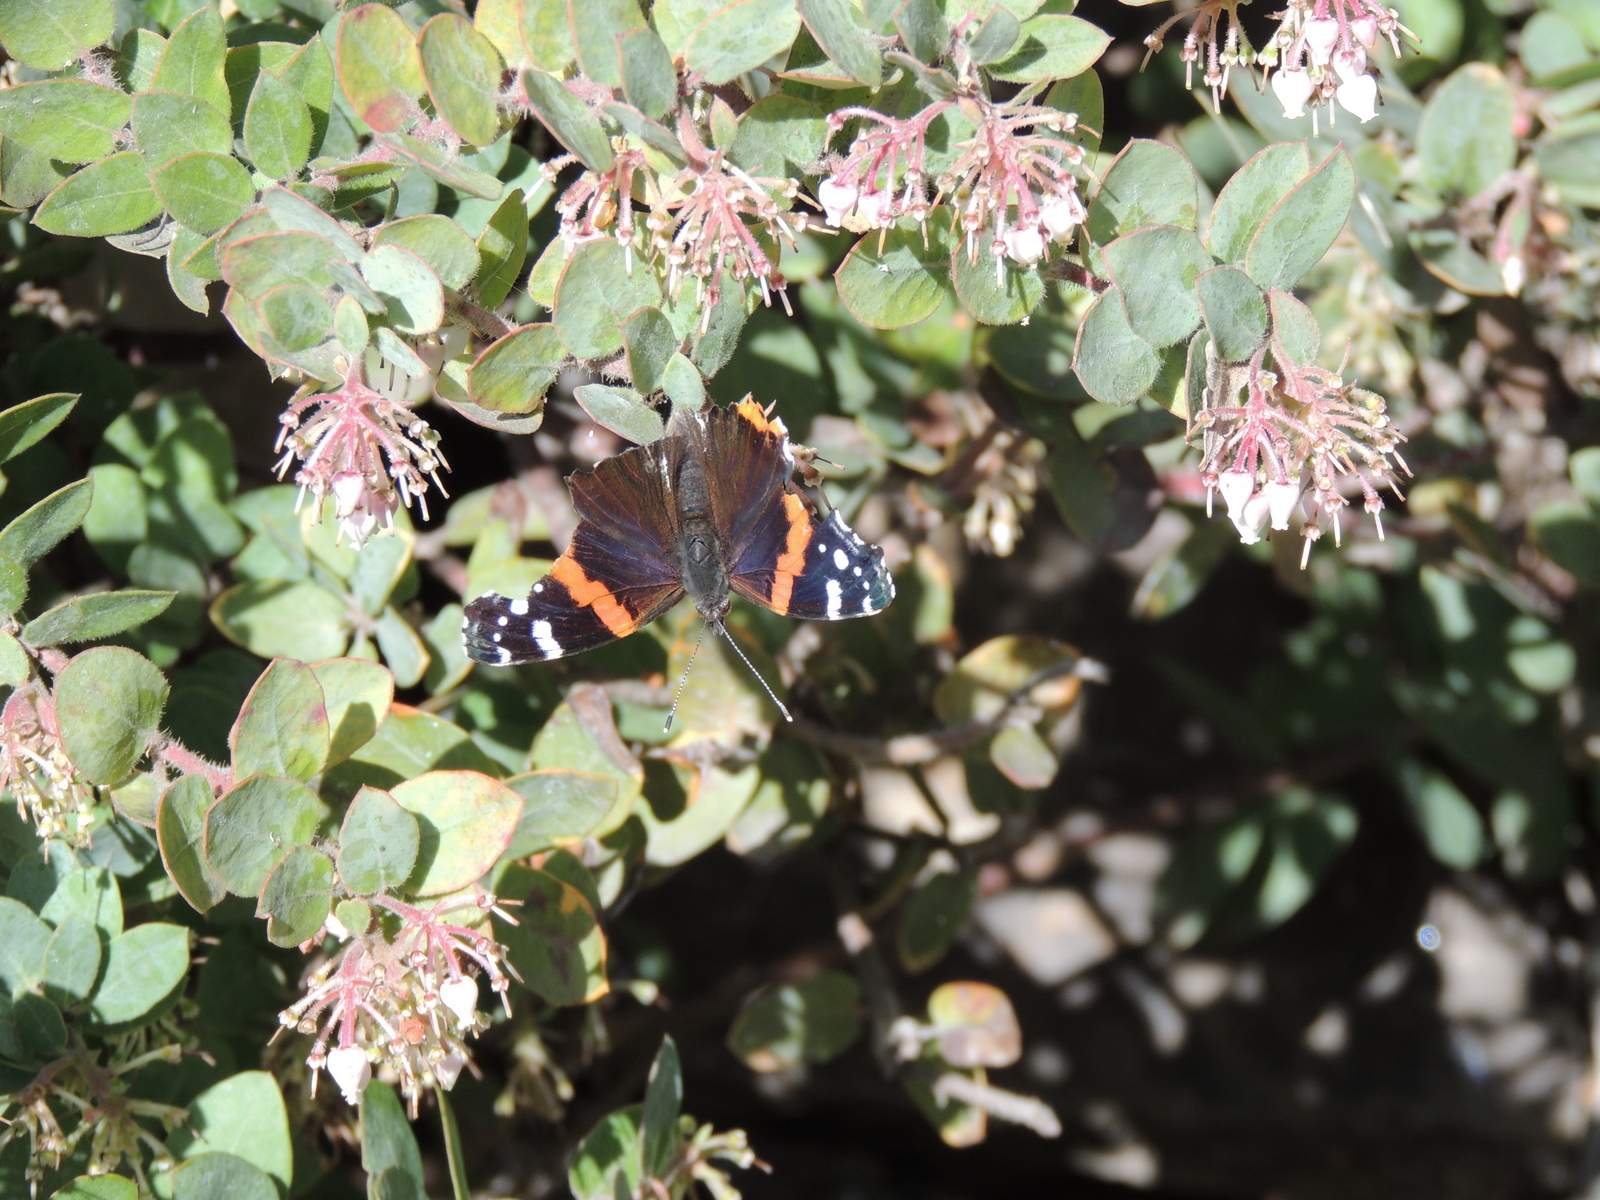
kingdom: Animalia
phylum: Arthropoda
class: Insecta
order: Lepidoptera
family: Nymphalidae
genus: Vanessa
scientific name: Vanessa atalanta
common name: Red admiral
